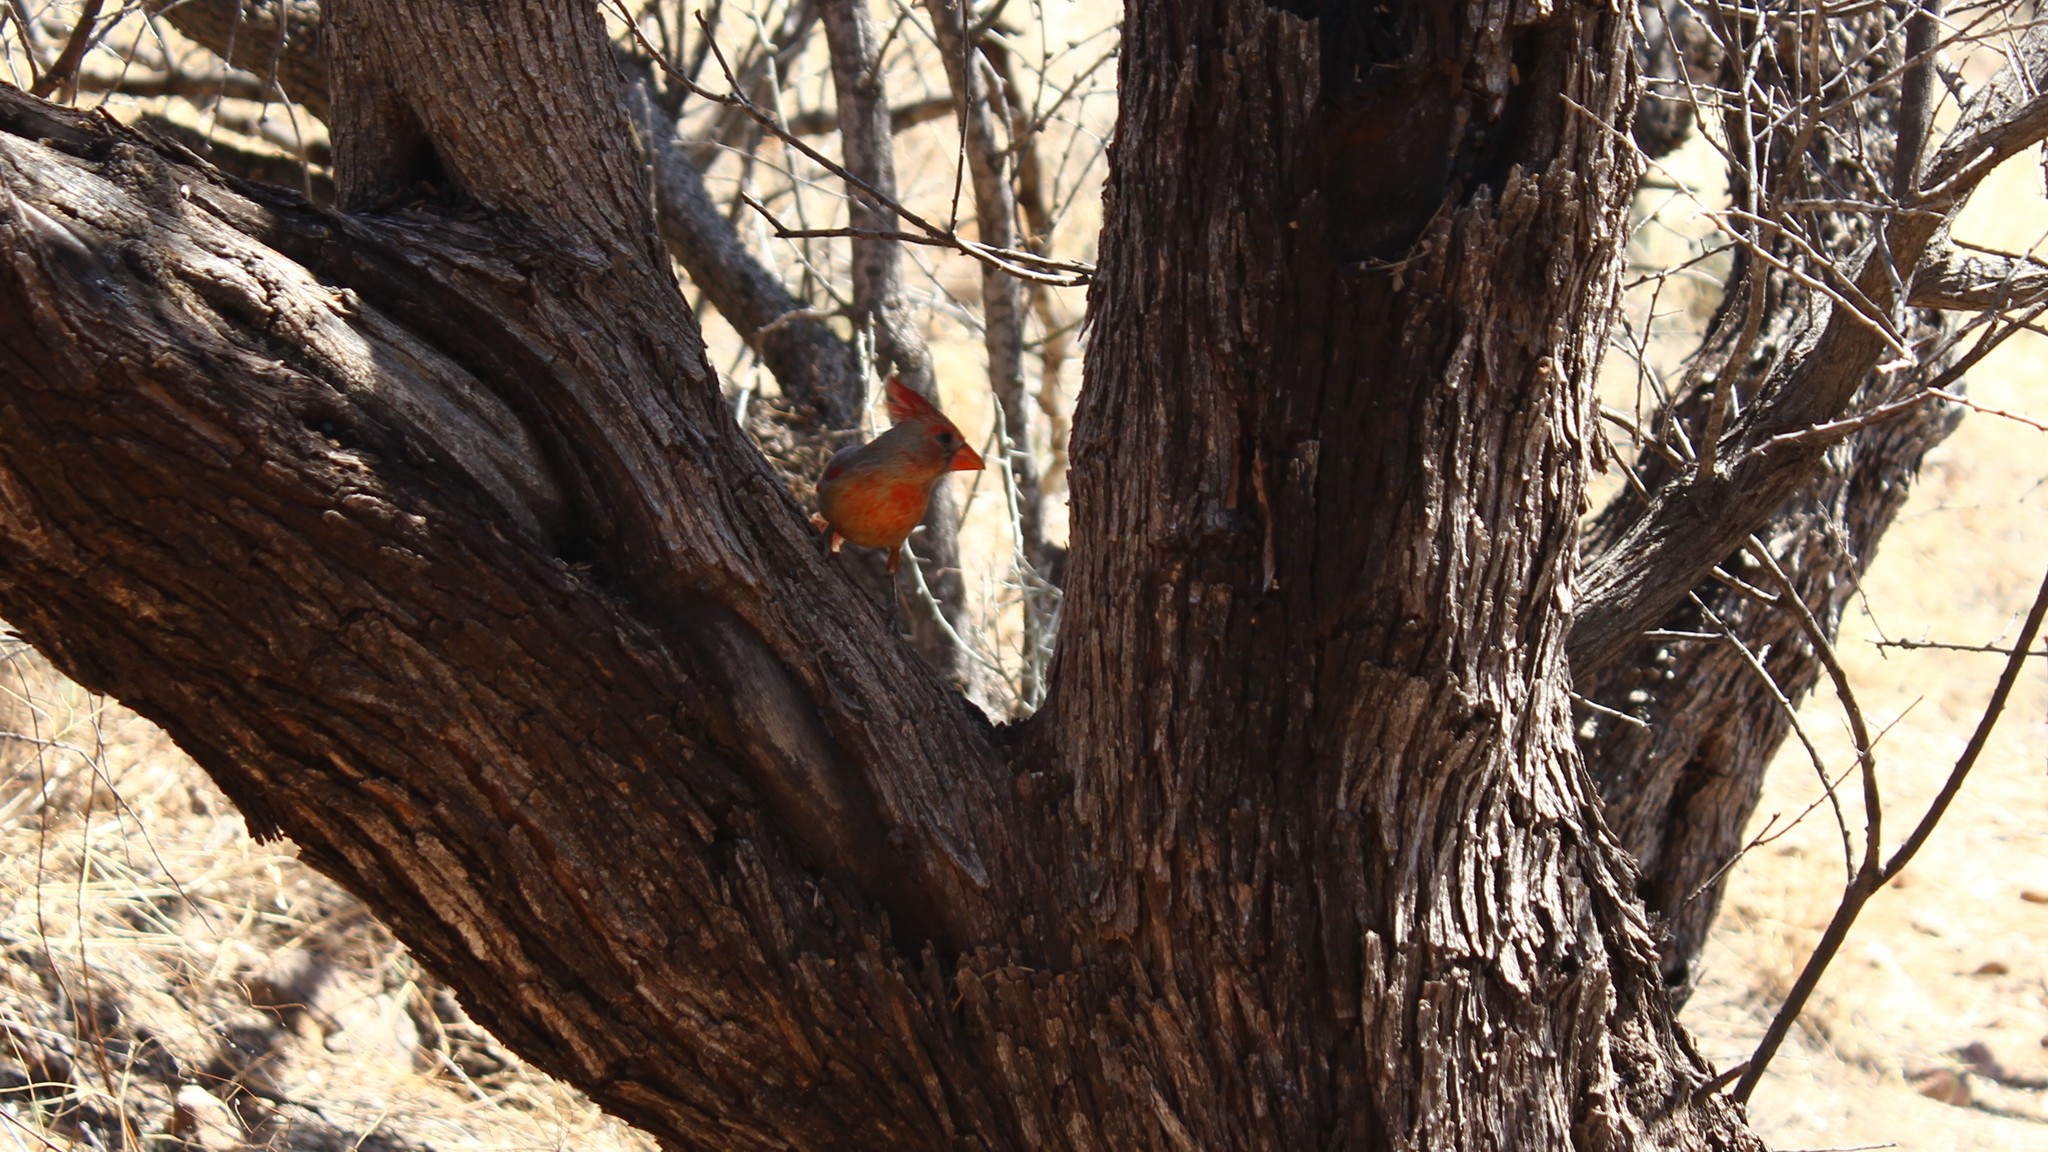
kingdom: Animalia
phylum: Chordata
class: Aves
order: Passeriformes
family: Cardinalidae
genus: Cardinalis
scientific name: Cardinalis cardinalis
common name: Northern cardinal
